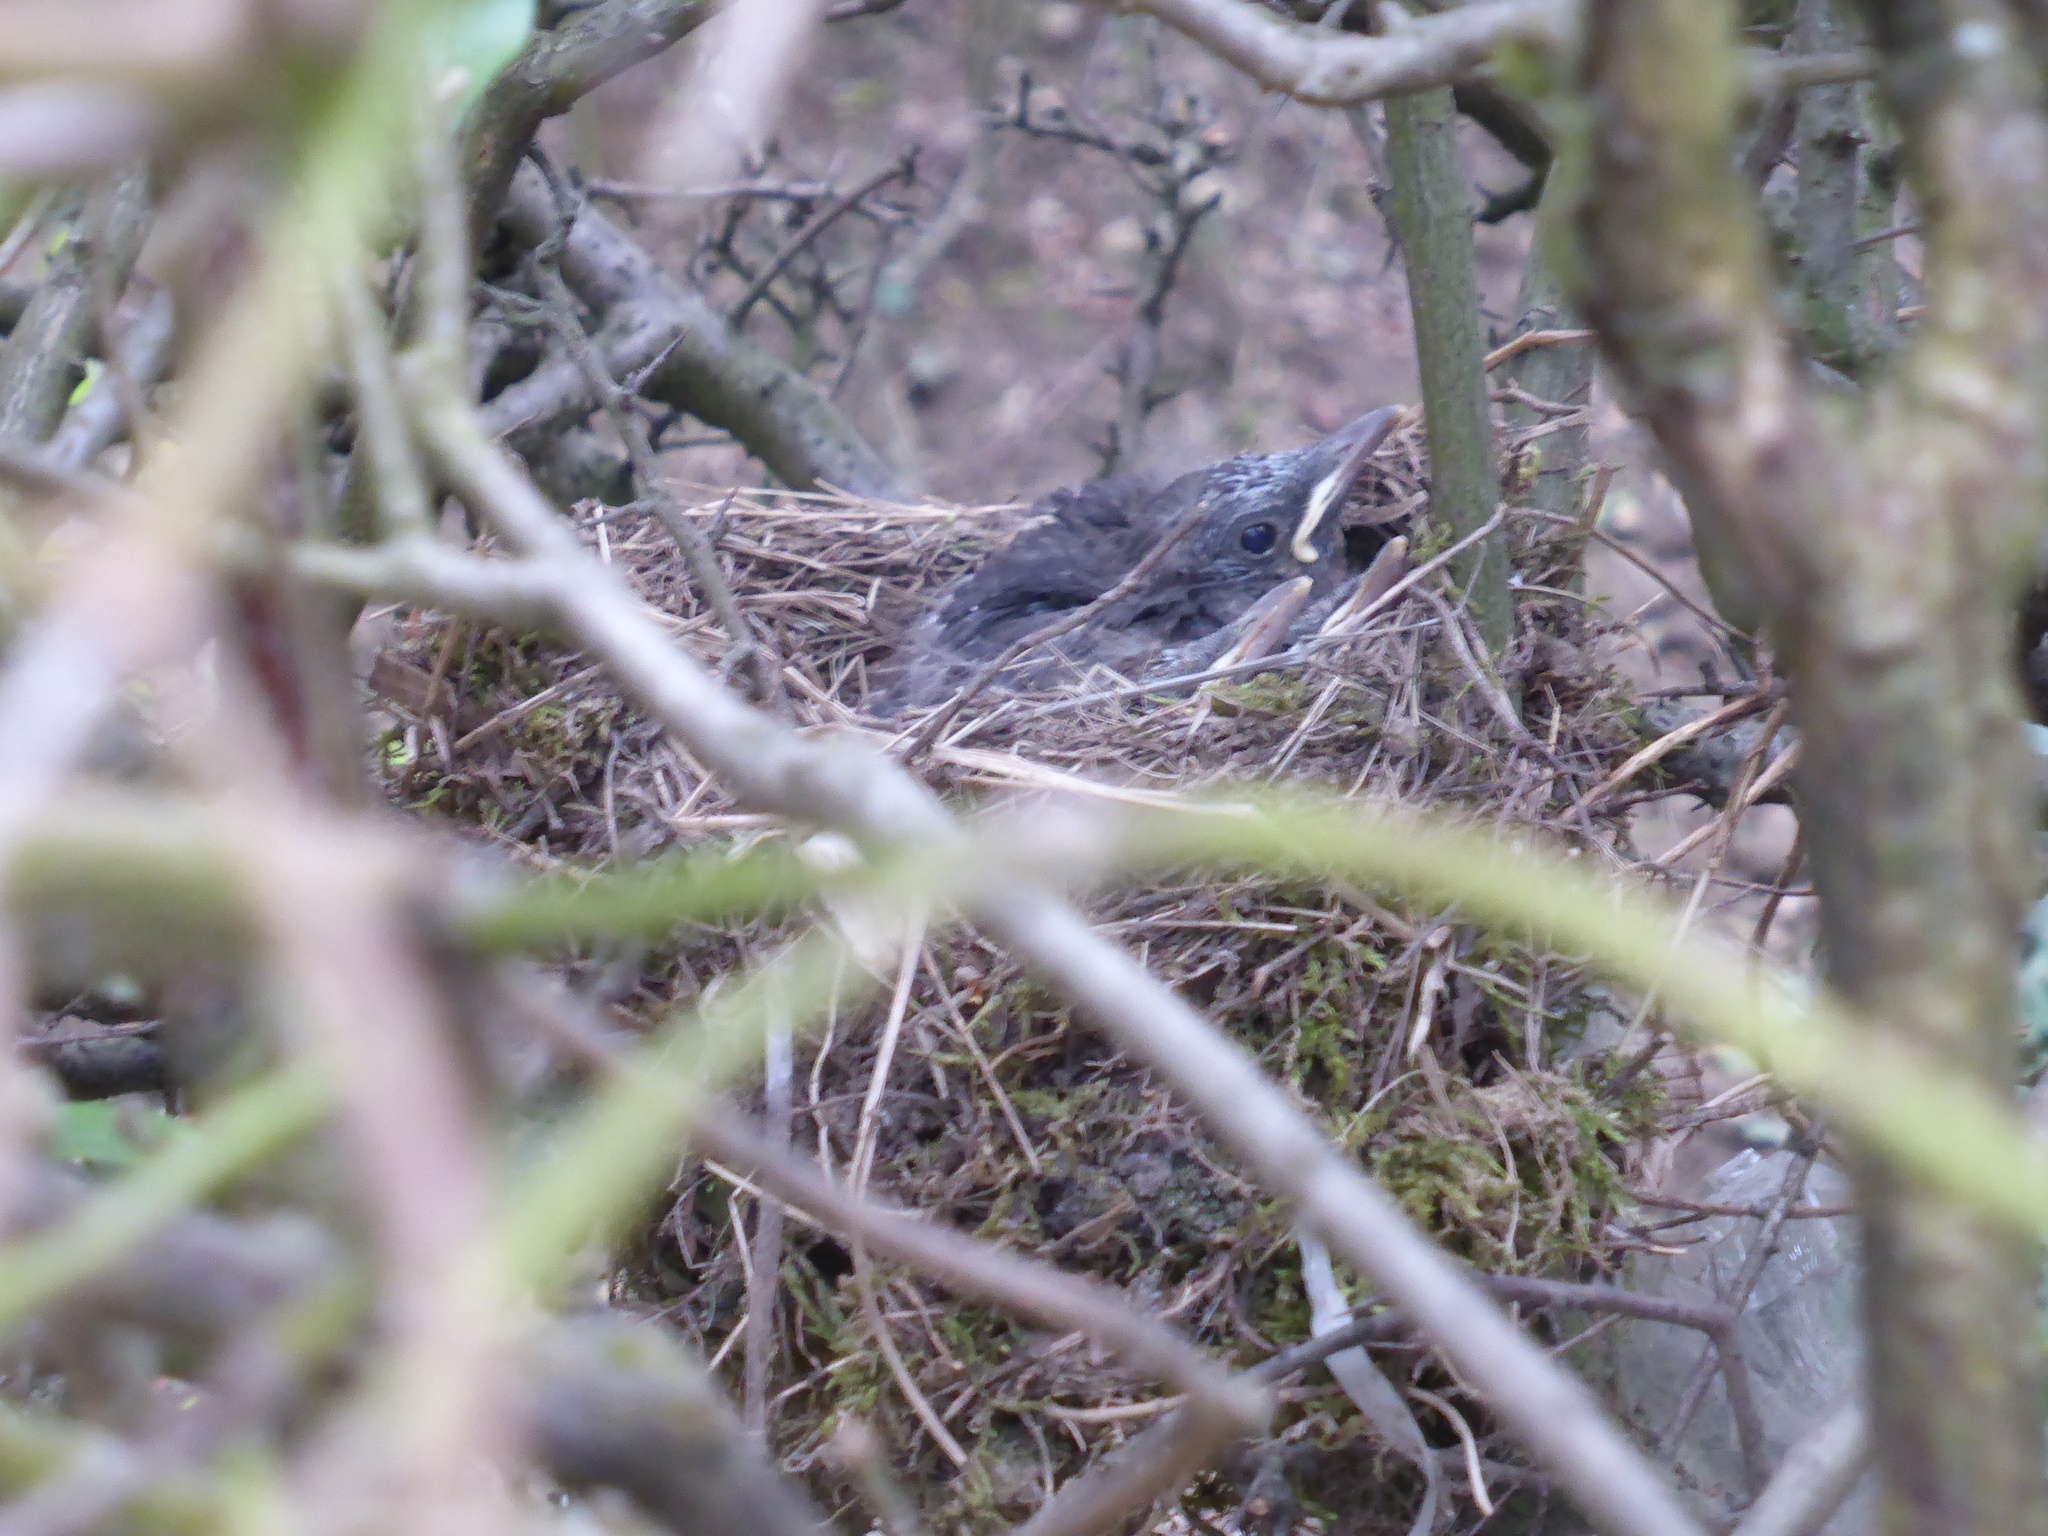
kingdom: Animalia
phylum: Chordata
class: Aves
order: Passeriformes
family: Turdidae
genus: Turdus
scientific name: Turdus merula
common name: Common blackbird
